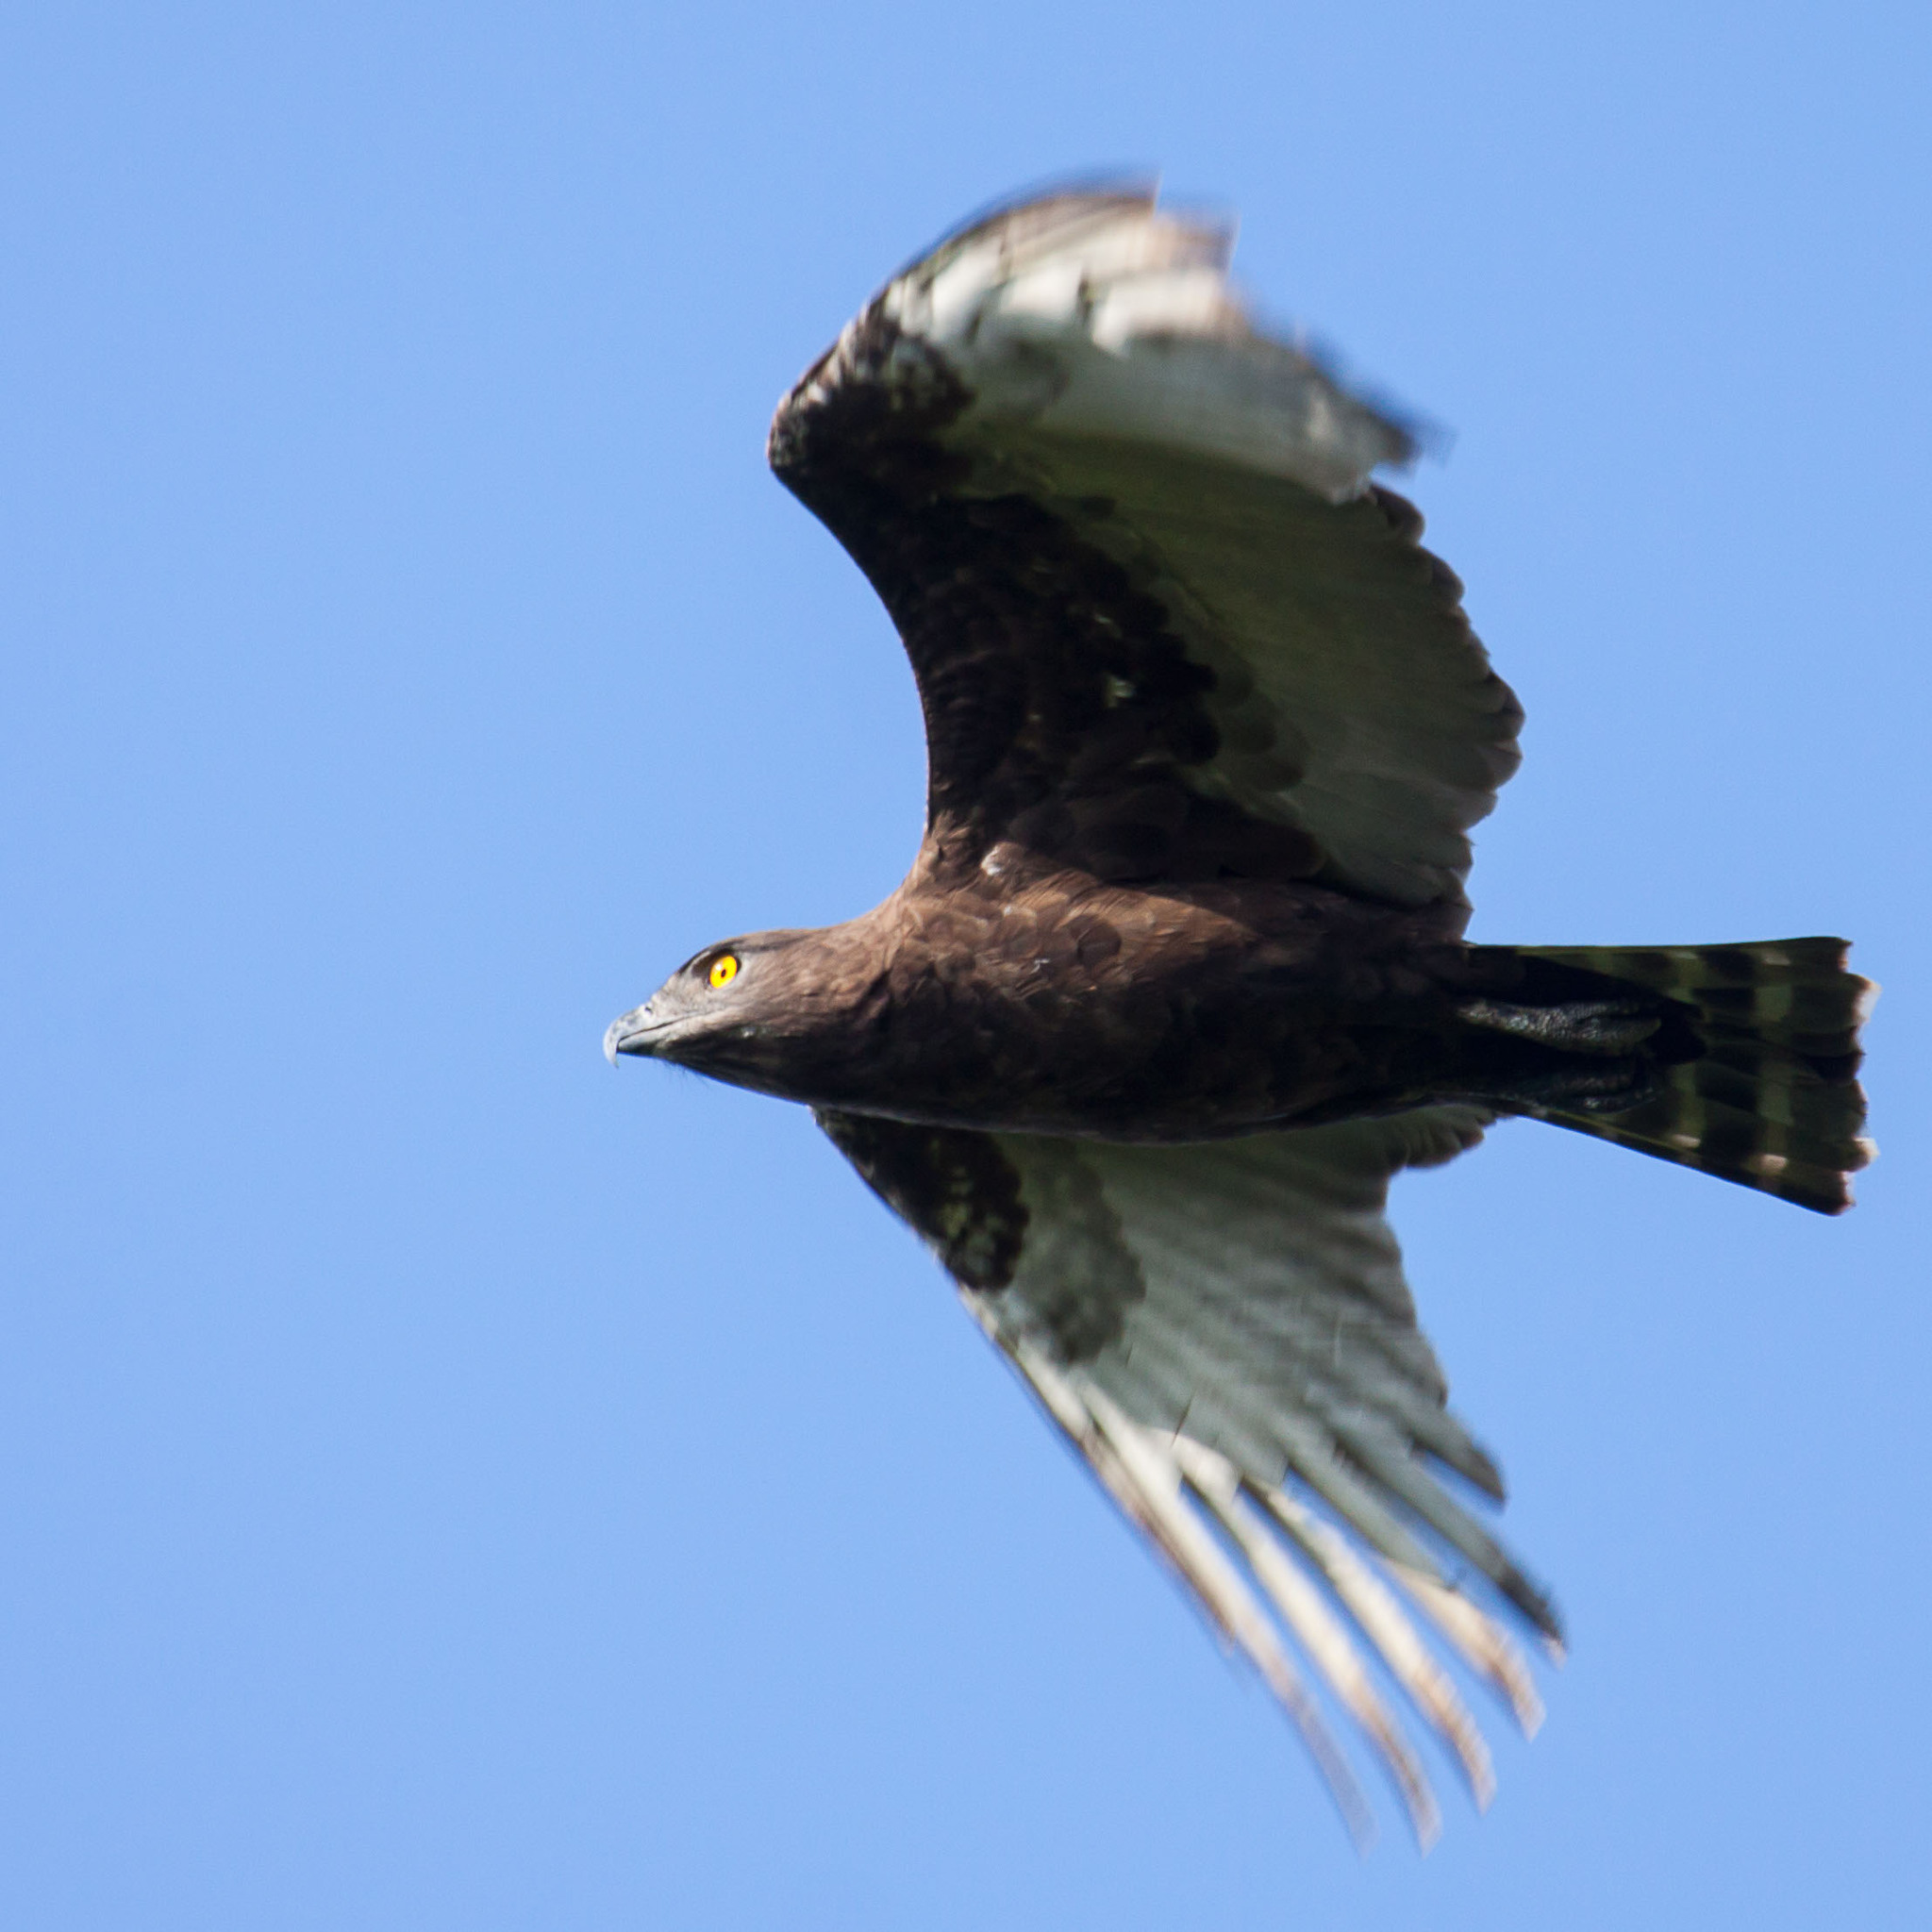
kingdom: Animalia
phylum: Chordata
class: Aves
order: Accipitriformes
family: Accipitridae
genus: Circaetus
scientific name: Circaetus cinereus
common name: Brown snake eagle
